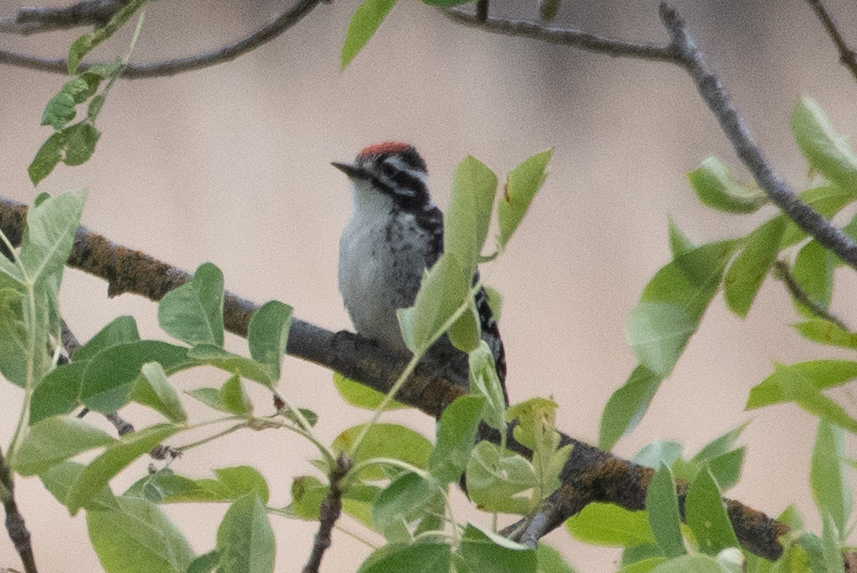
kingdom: Animalia
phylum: Chordata
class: Aves
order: Piciformes
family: Picidae
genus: Dryobates
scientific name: Dryobates nuttallii
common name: Nuttall's woodpecker
